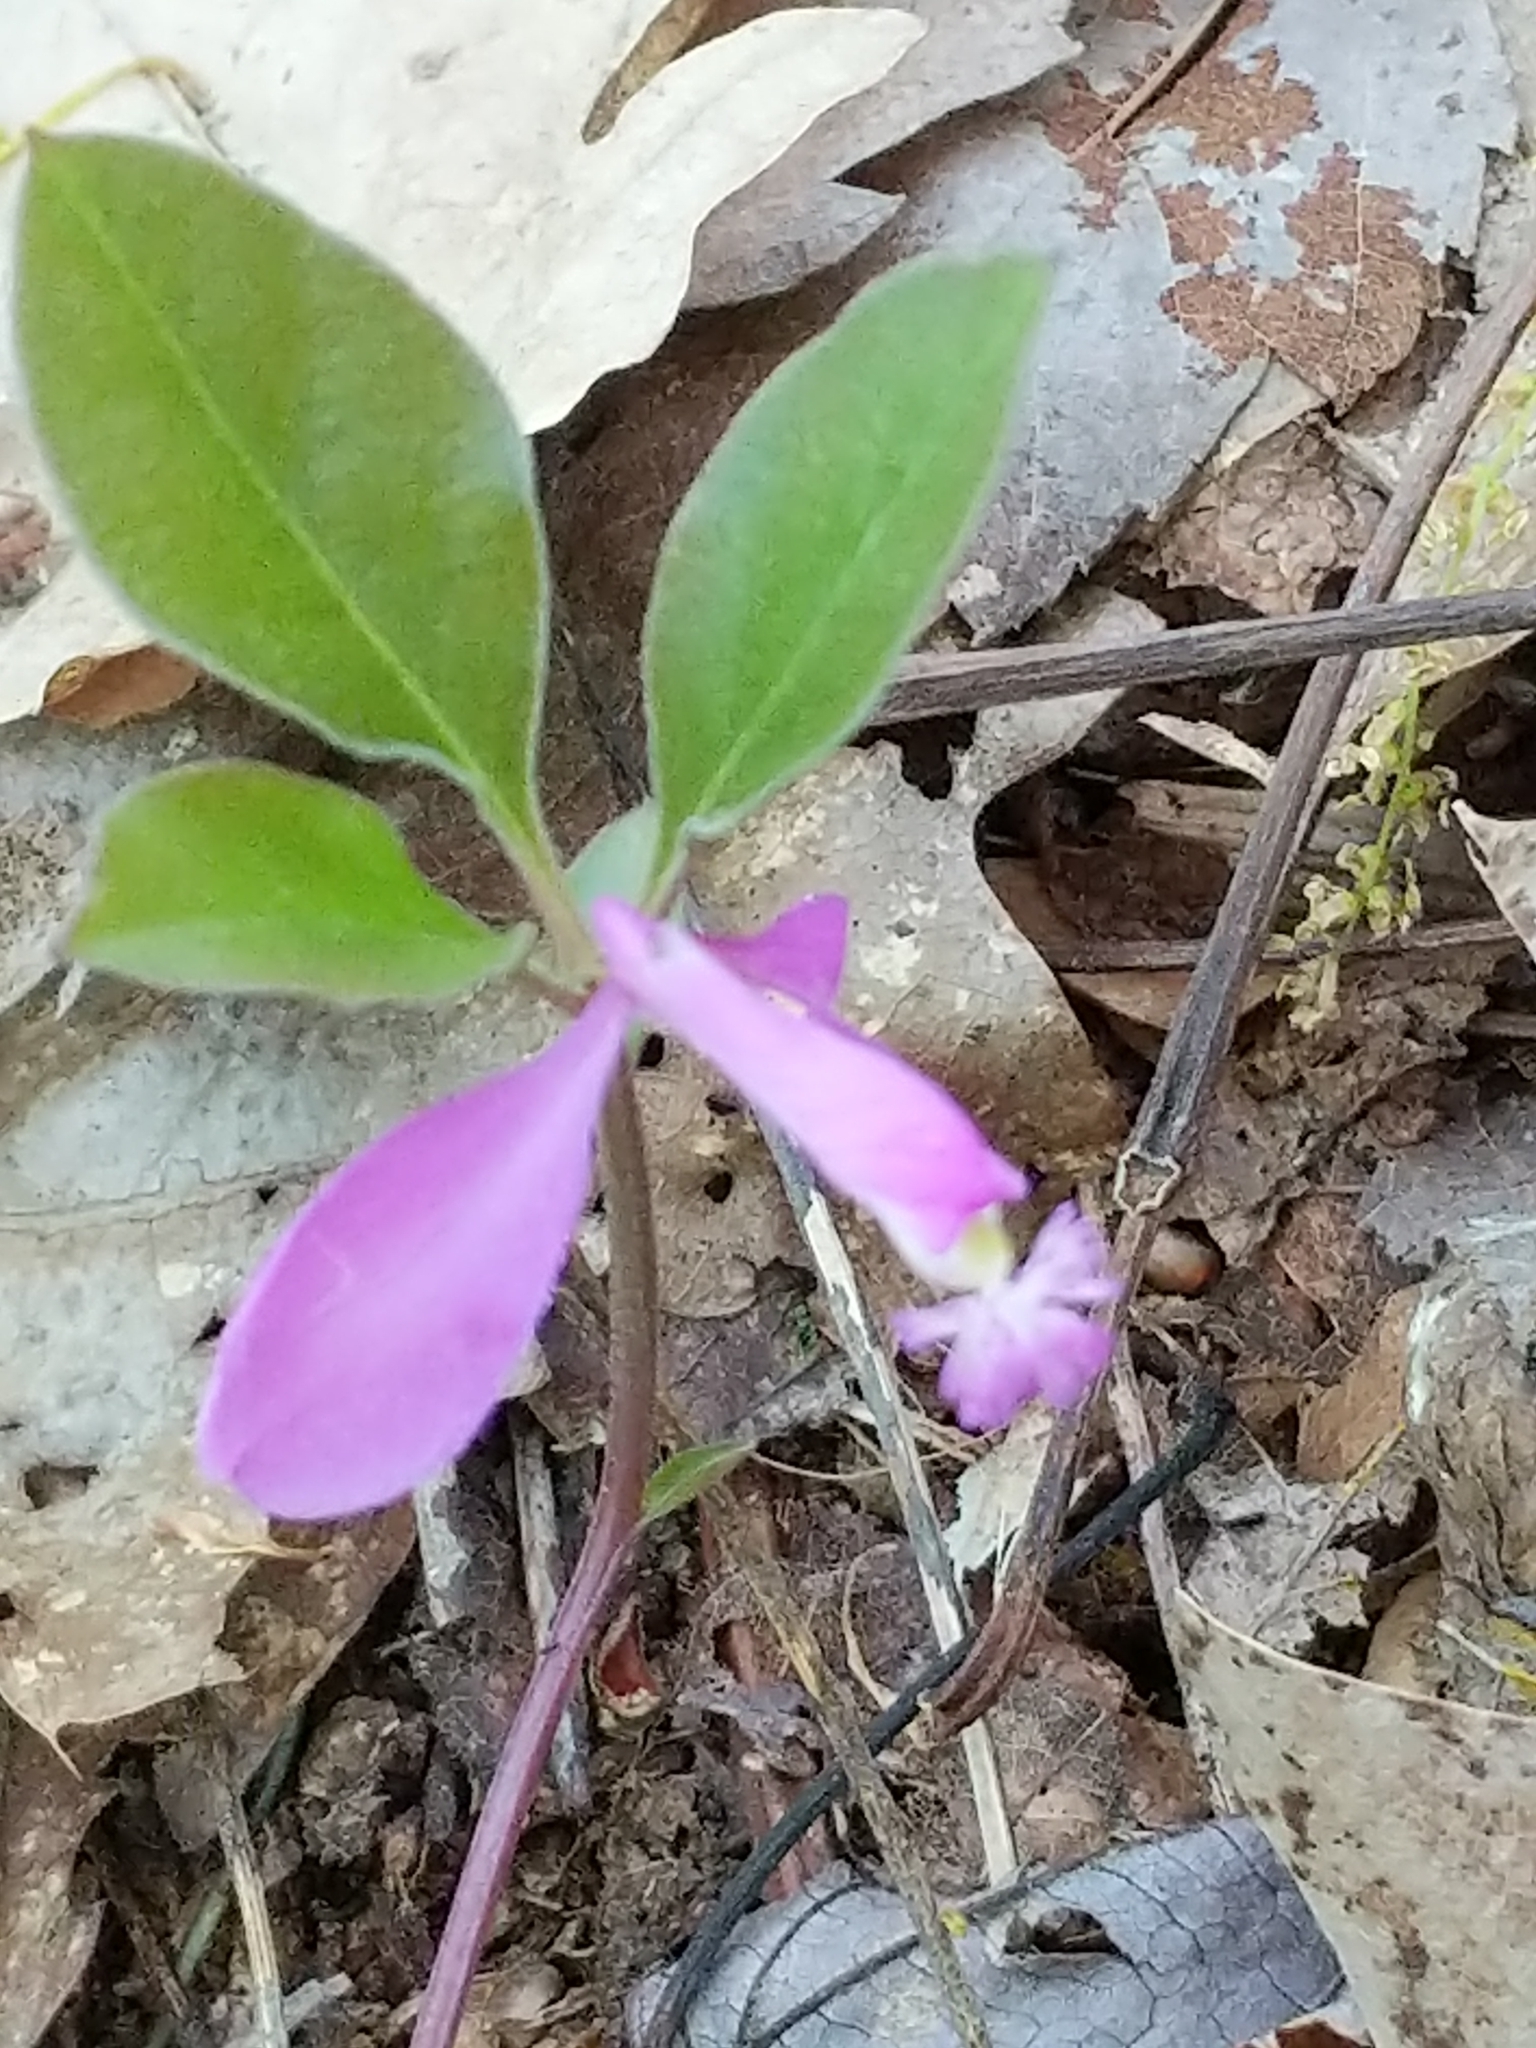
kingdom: Plantae
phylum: Tracheophyta
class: Magnoliopsida
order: Fabales
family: Polygalaceae
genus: Polygaloides
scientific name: Polygaloides paucifolia
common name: Bird-on-the-wing
